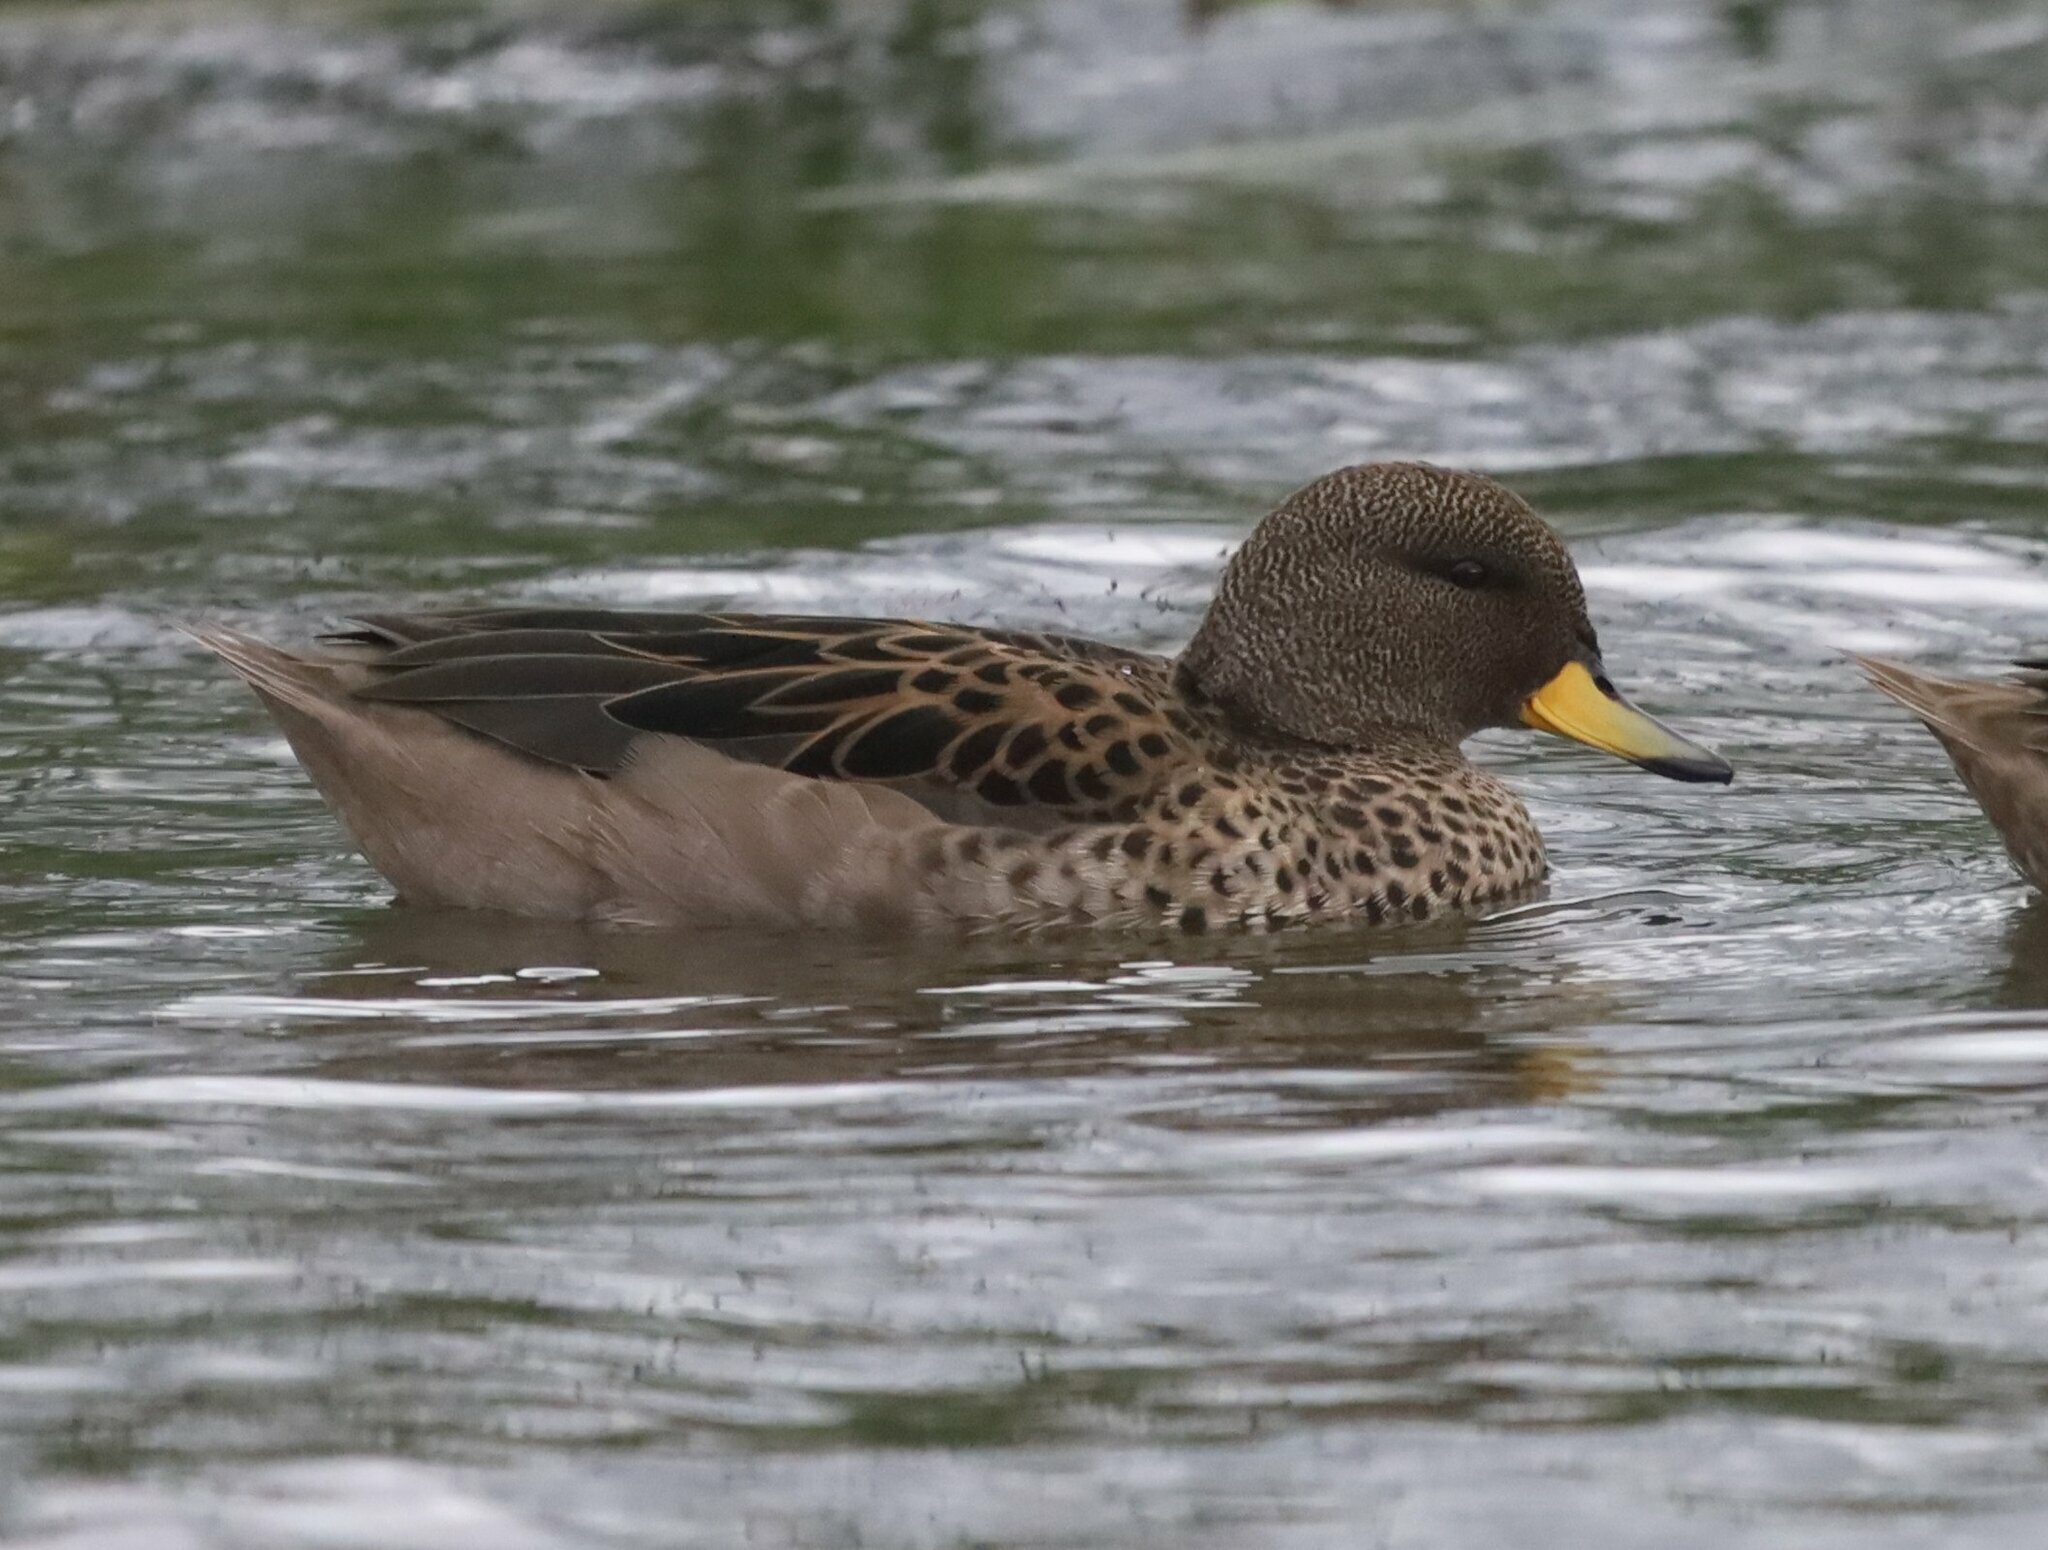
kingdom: Animalia
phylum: Chordata
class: Aves
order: Anseriformes
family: Anatidae
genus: Anas
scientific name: Anas flavirostris
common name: Yellow-billed teal
